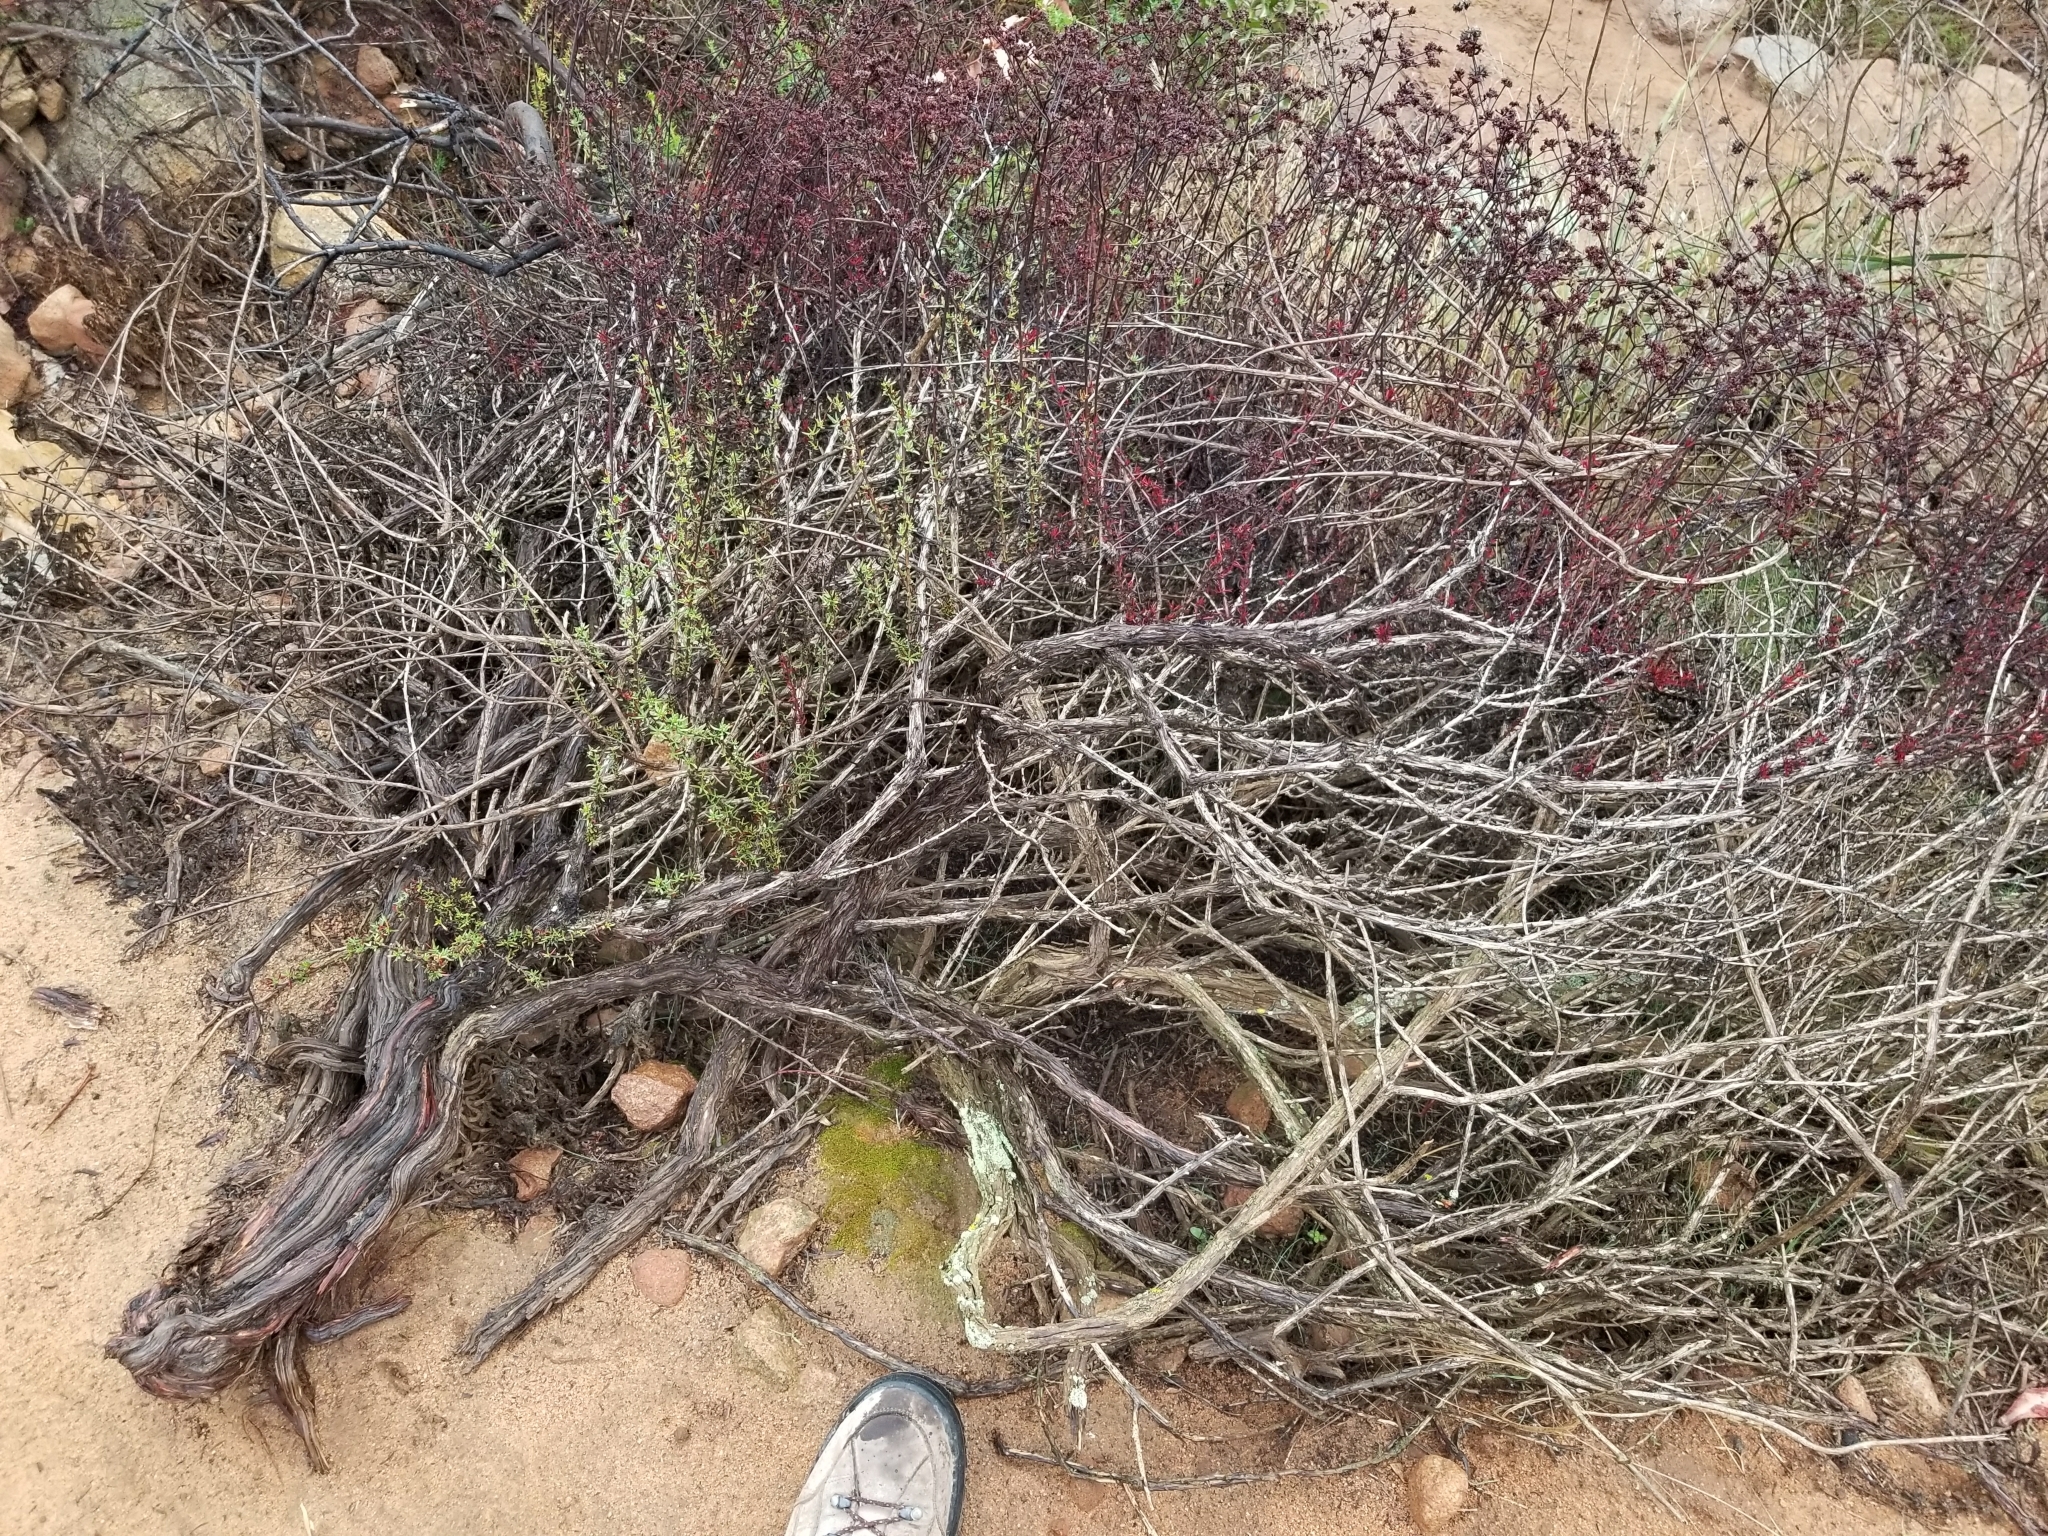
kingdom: Plantae
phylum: Tracheophyta
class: Magnoliopsida
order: Caryophyllales
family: Polygonaceae
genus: Eriogonum
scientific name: Eriogonum fasciculatum
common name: California wild buckwheat
